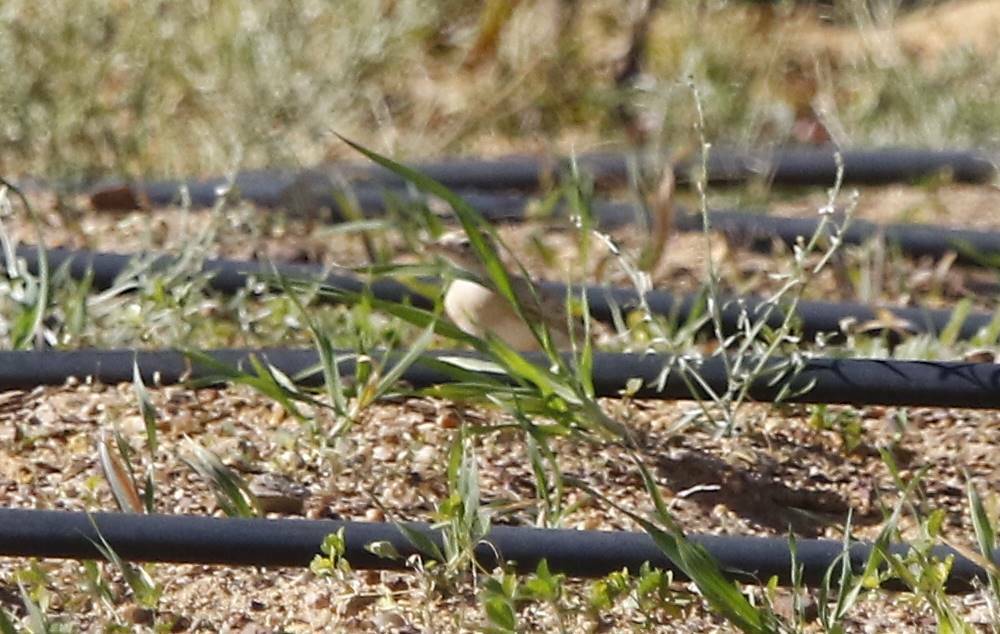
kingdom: Animalia
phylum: Chordata
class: Aves
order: Passeriformes
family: Alaudidae
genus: Calandrella
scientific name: Calandrella brachydactyla
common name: Greater short-toed lark
